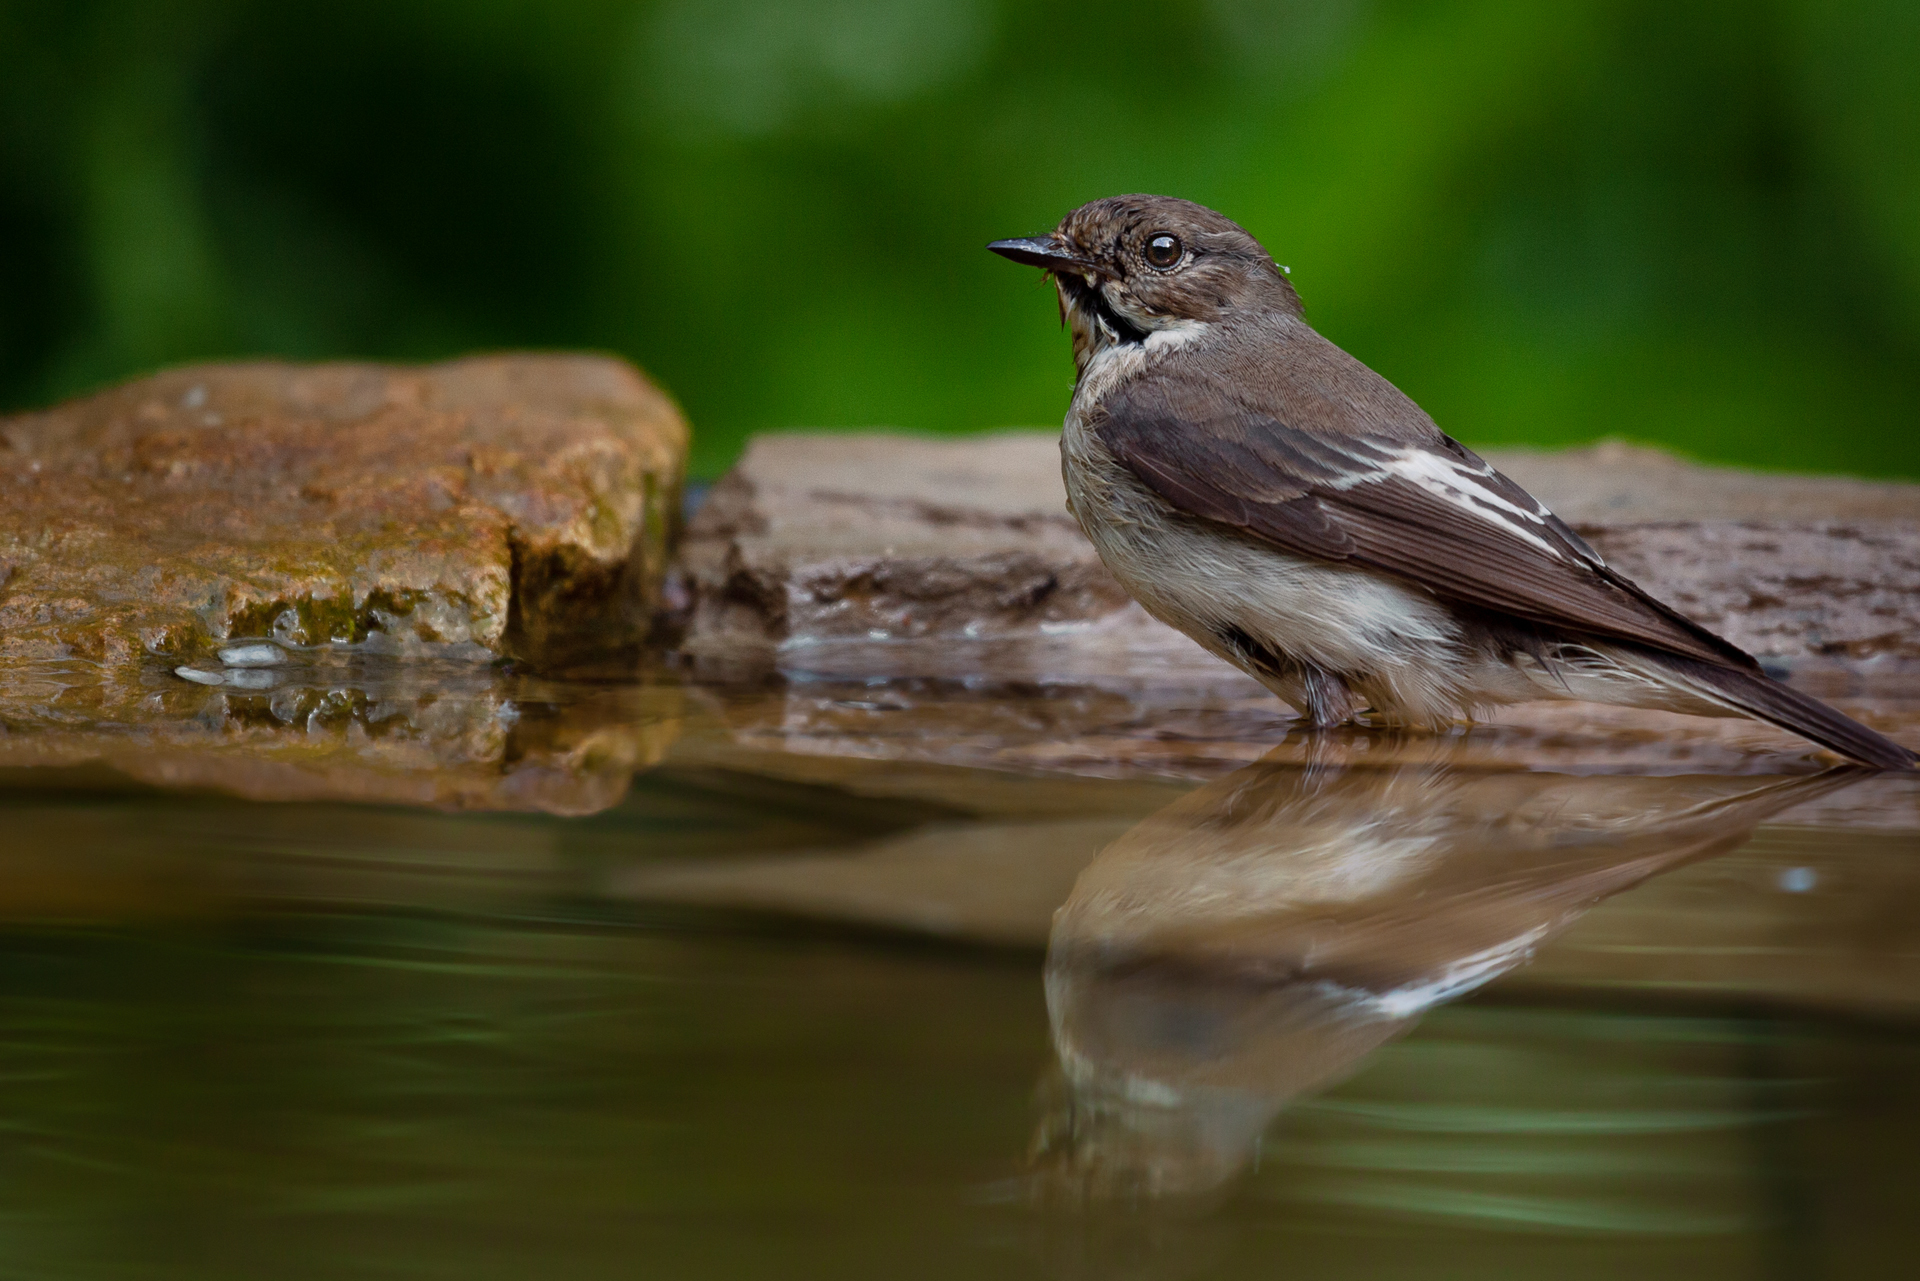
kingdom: Animalia
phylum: Chordata
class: Aves
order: Passeriformes
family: Muscicapidae
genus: Ficedula
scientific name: Ficedula hypoleuca
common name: European pied flycatcher
